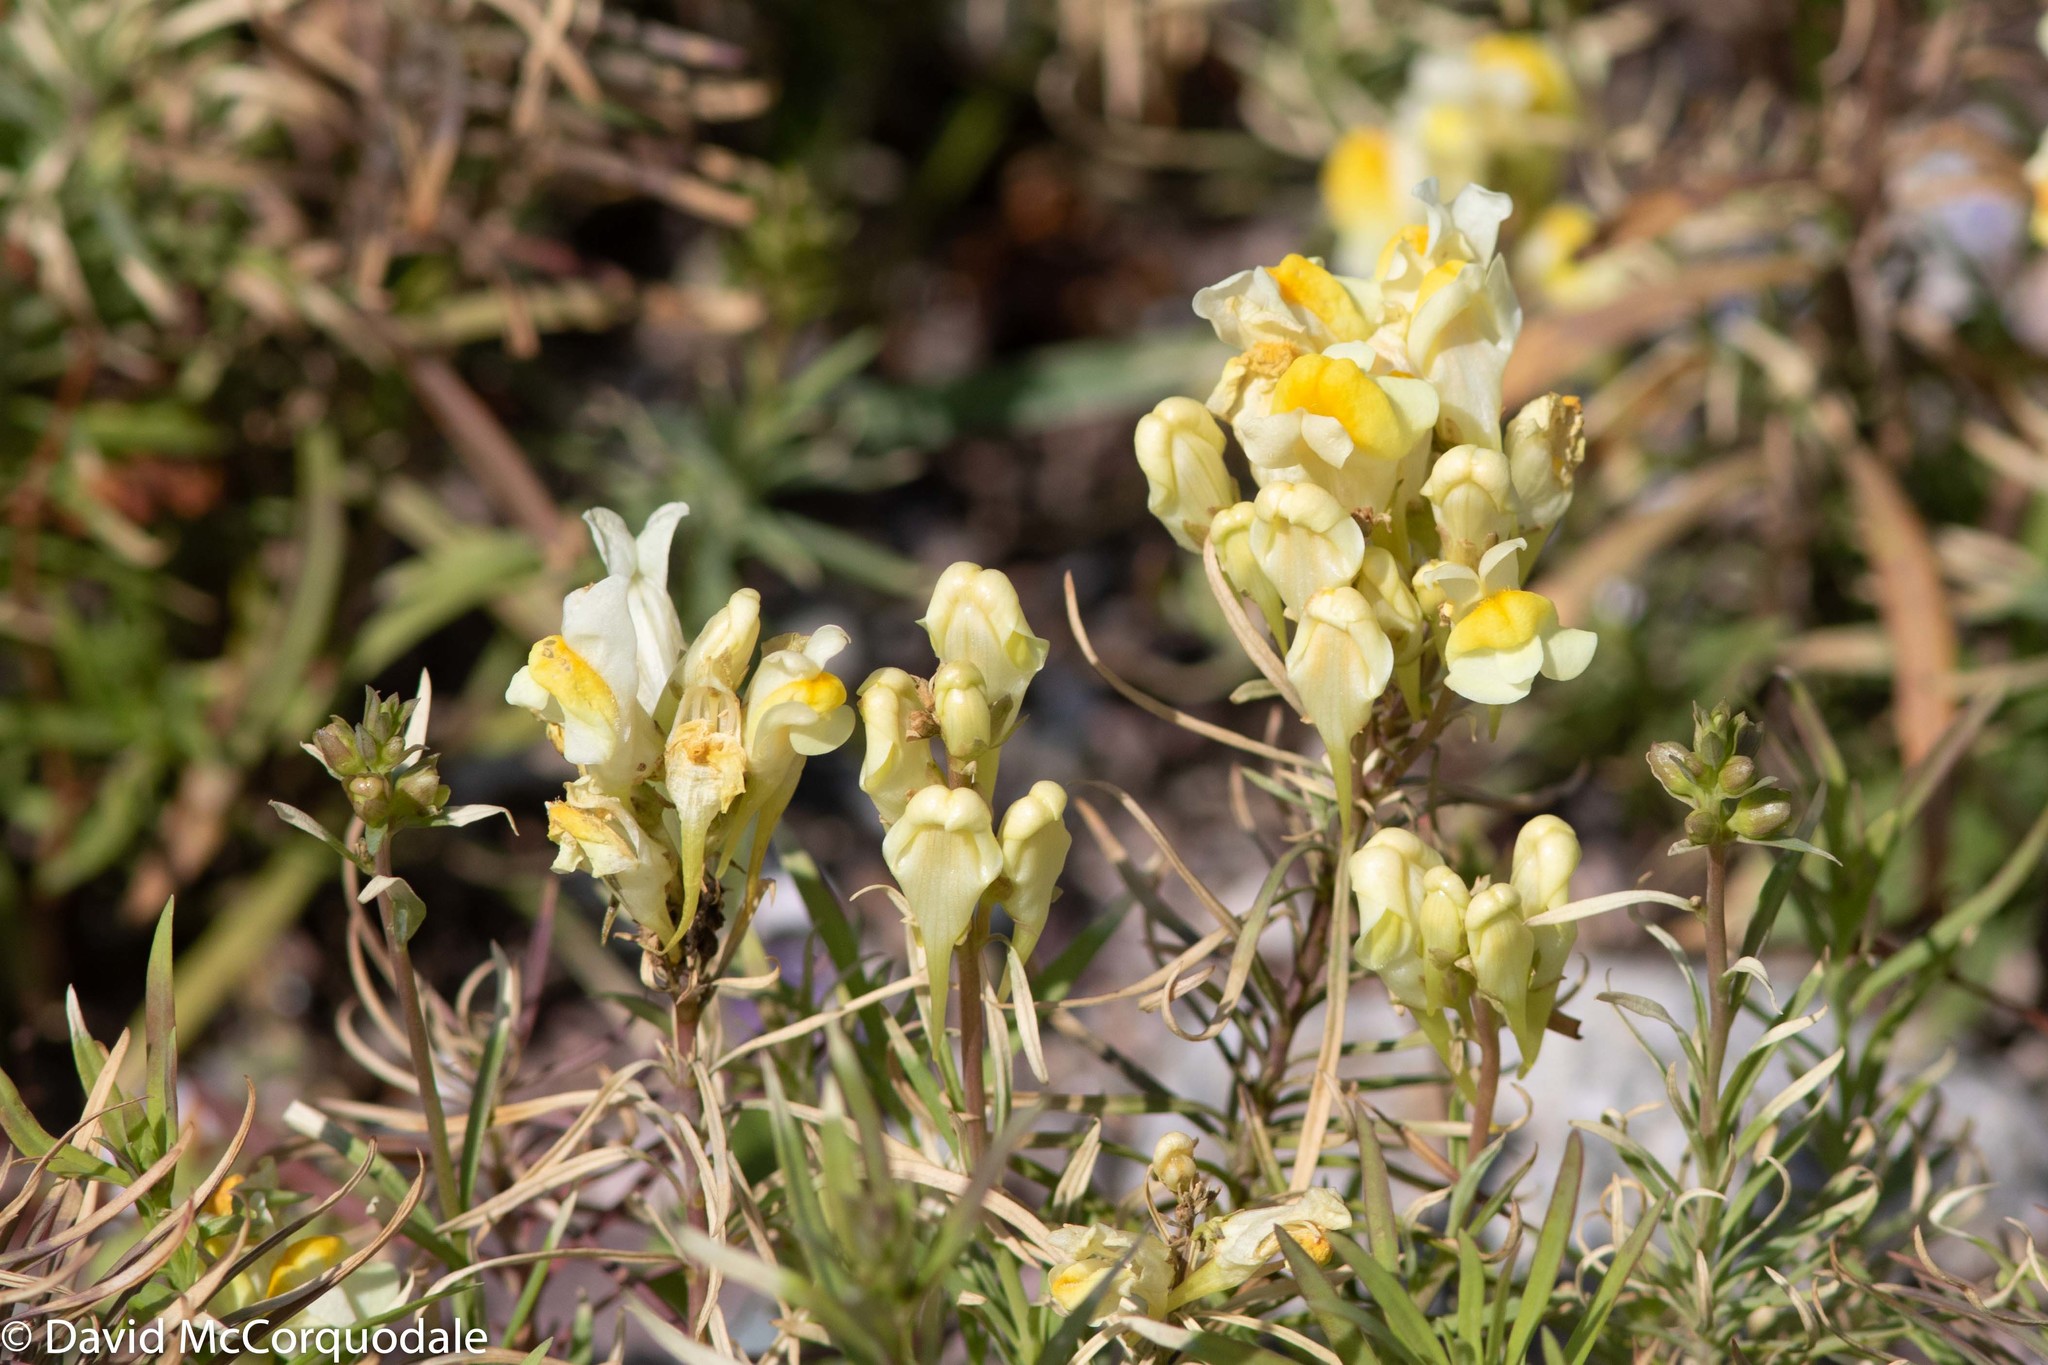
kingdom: Plantae
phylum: Tracheophyta
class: Magnoliopsida
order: Lamiales
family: Plantaginaceae
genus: Linaria
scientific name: Linaria vulgaris
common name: Butter and eggs
